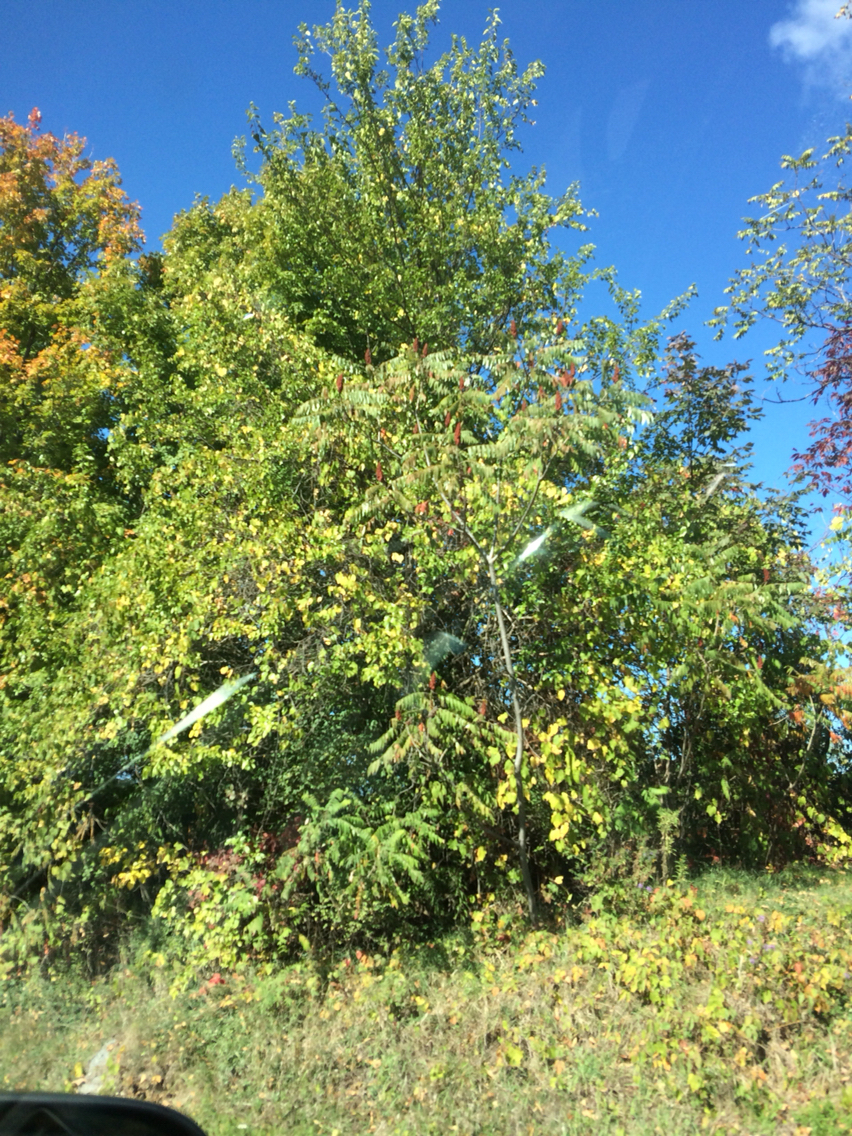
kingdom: Plantae
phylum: Tracheophyta
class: Magnoliopsida
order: Sapindales
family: Anacardiaceae
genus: Rhus
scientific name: Rhus typhina
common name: Staghorn sumac
